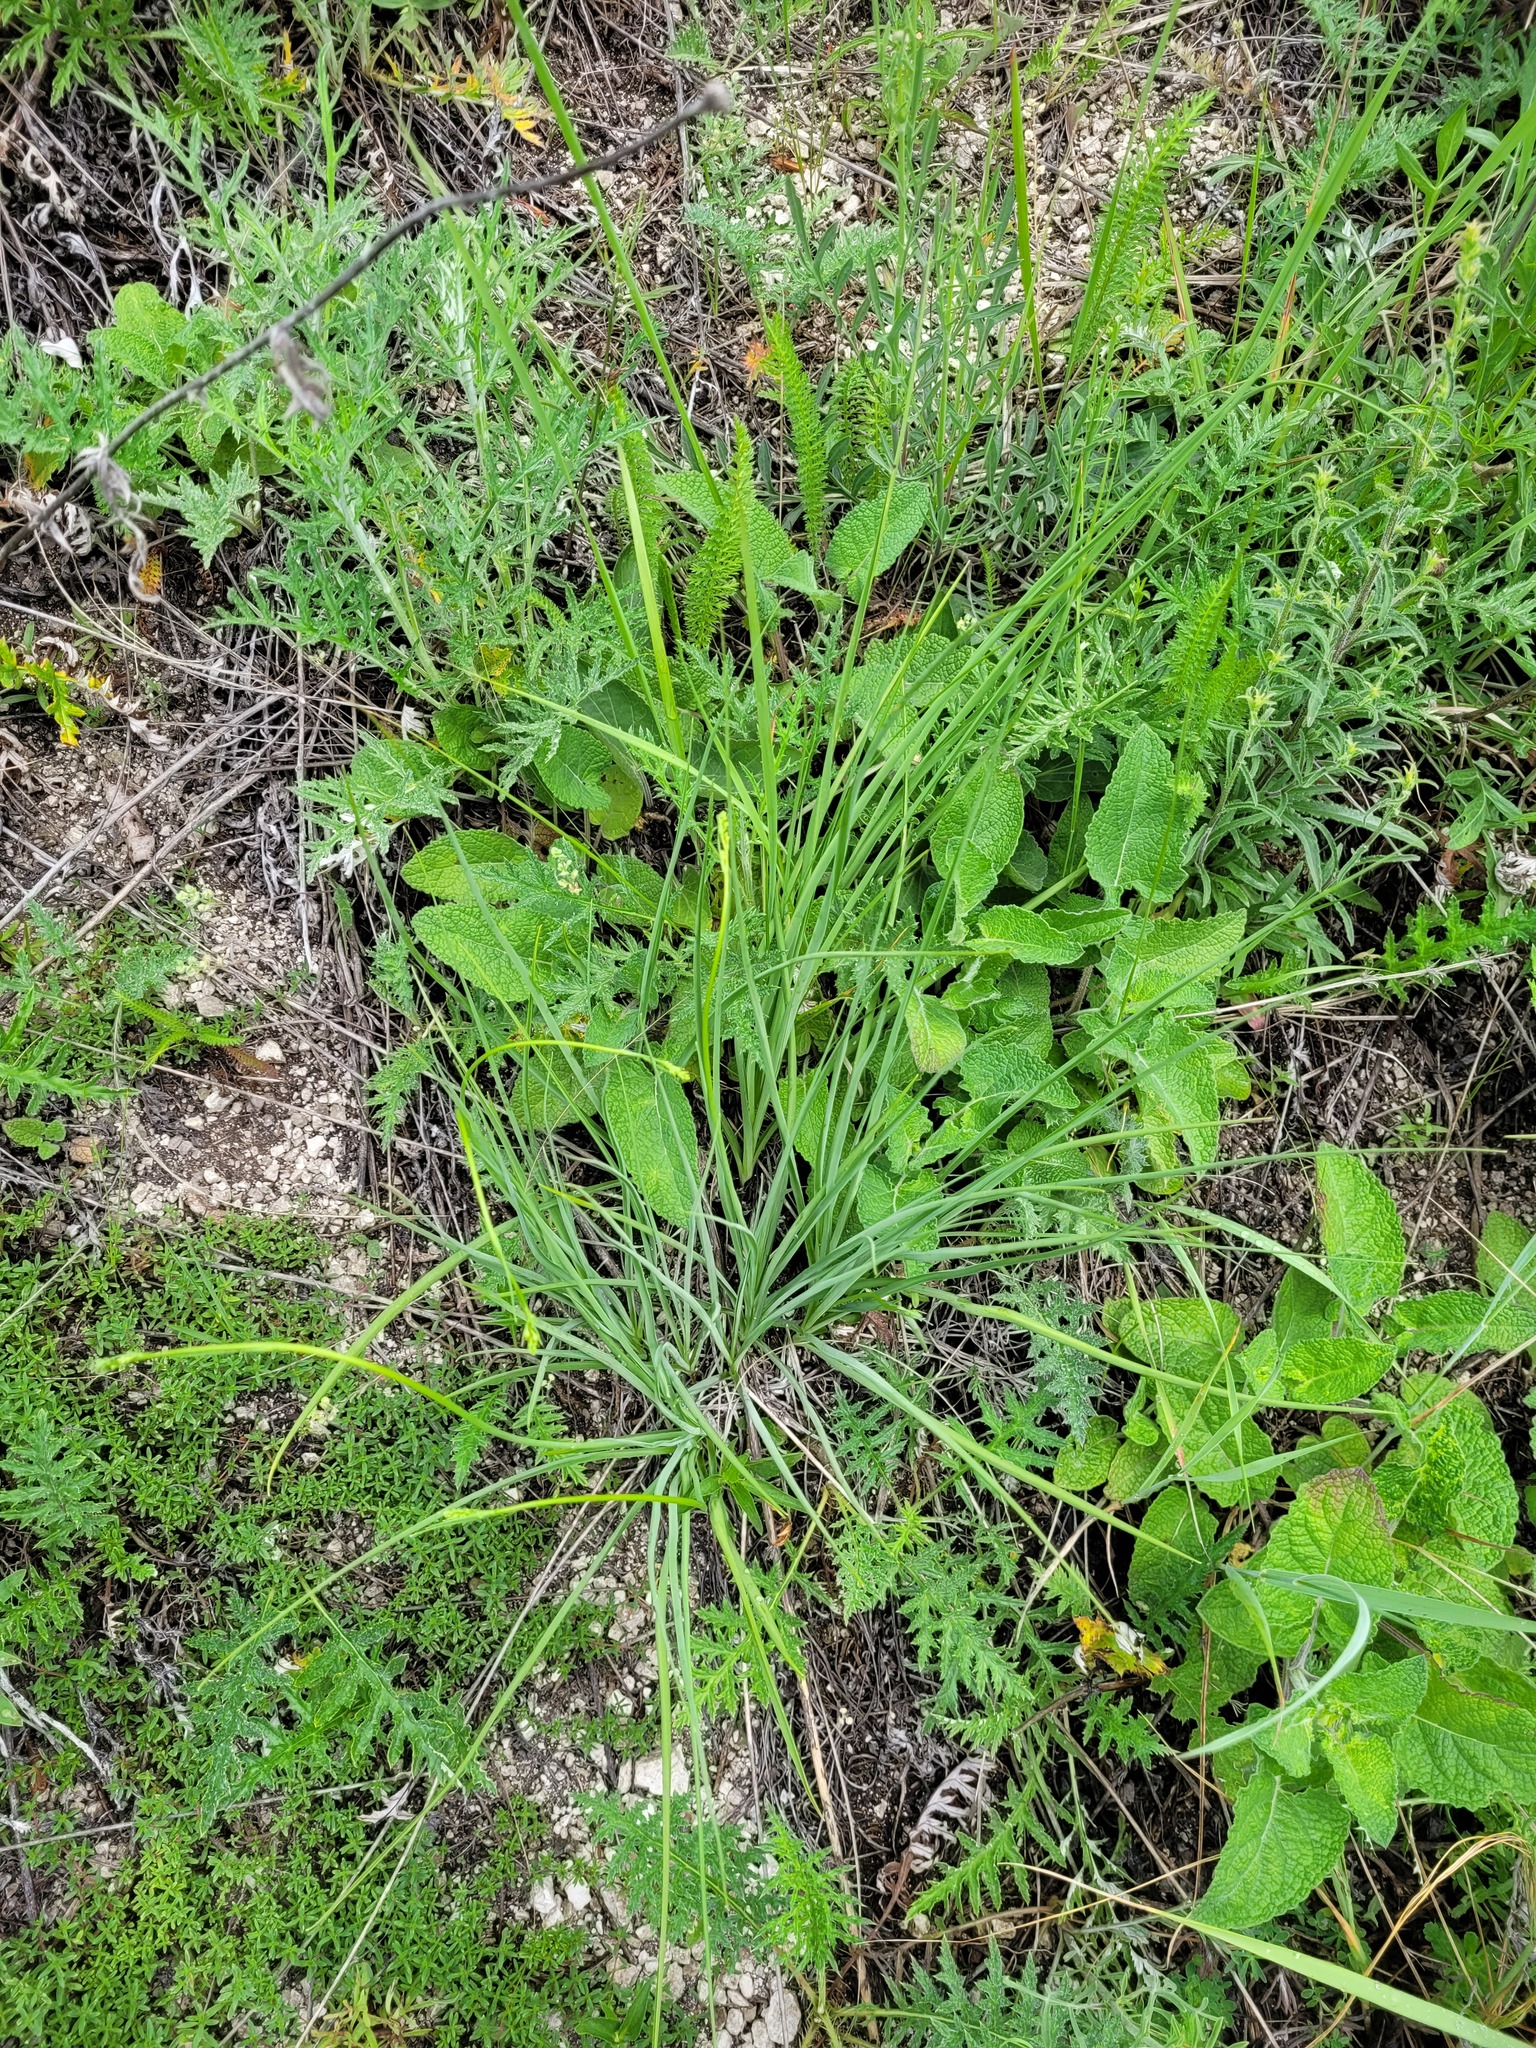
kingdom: Plantae
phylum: Tracheophyta
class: Liliopsida
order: Asparagales
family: Asparagaceae
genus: Anthericum
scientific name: Anthericum ramosum
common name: Branched st. bernard's-lily
